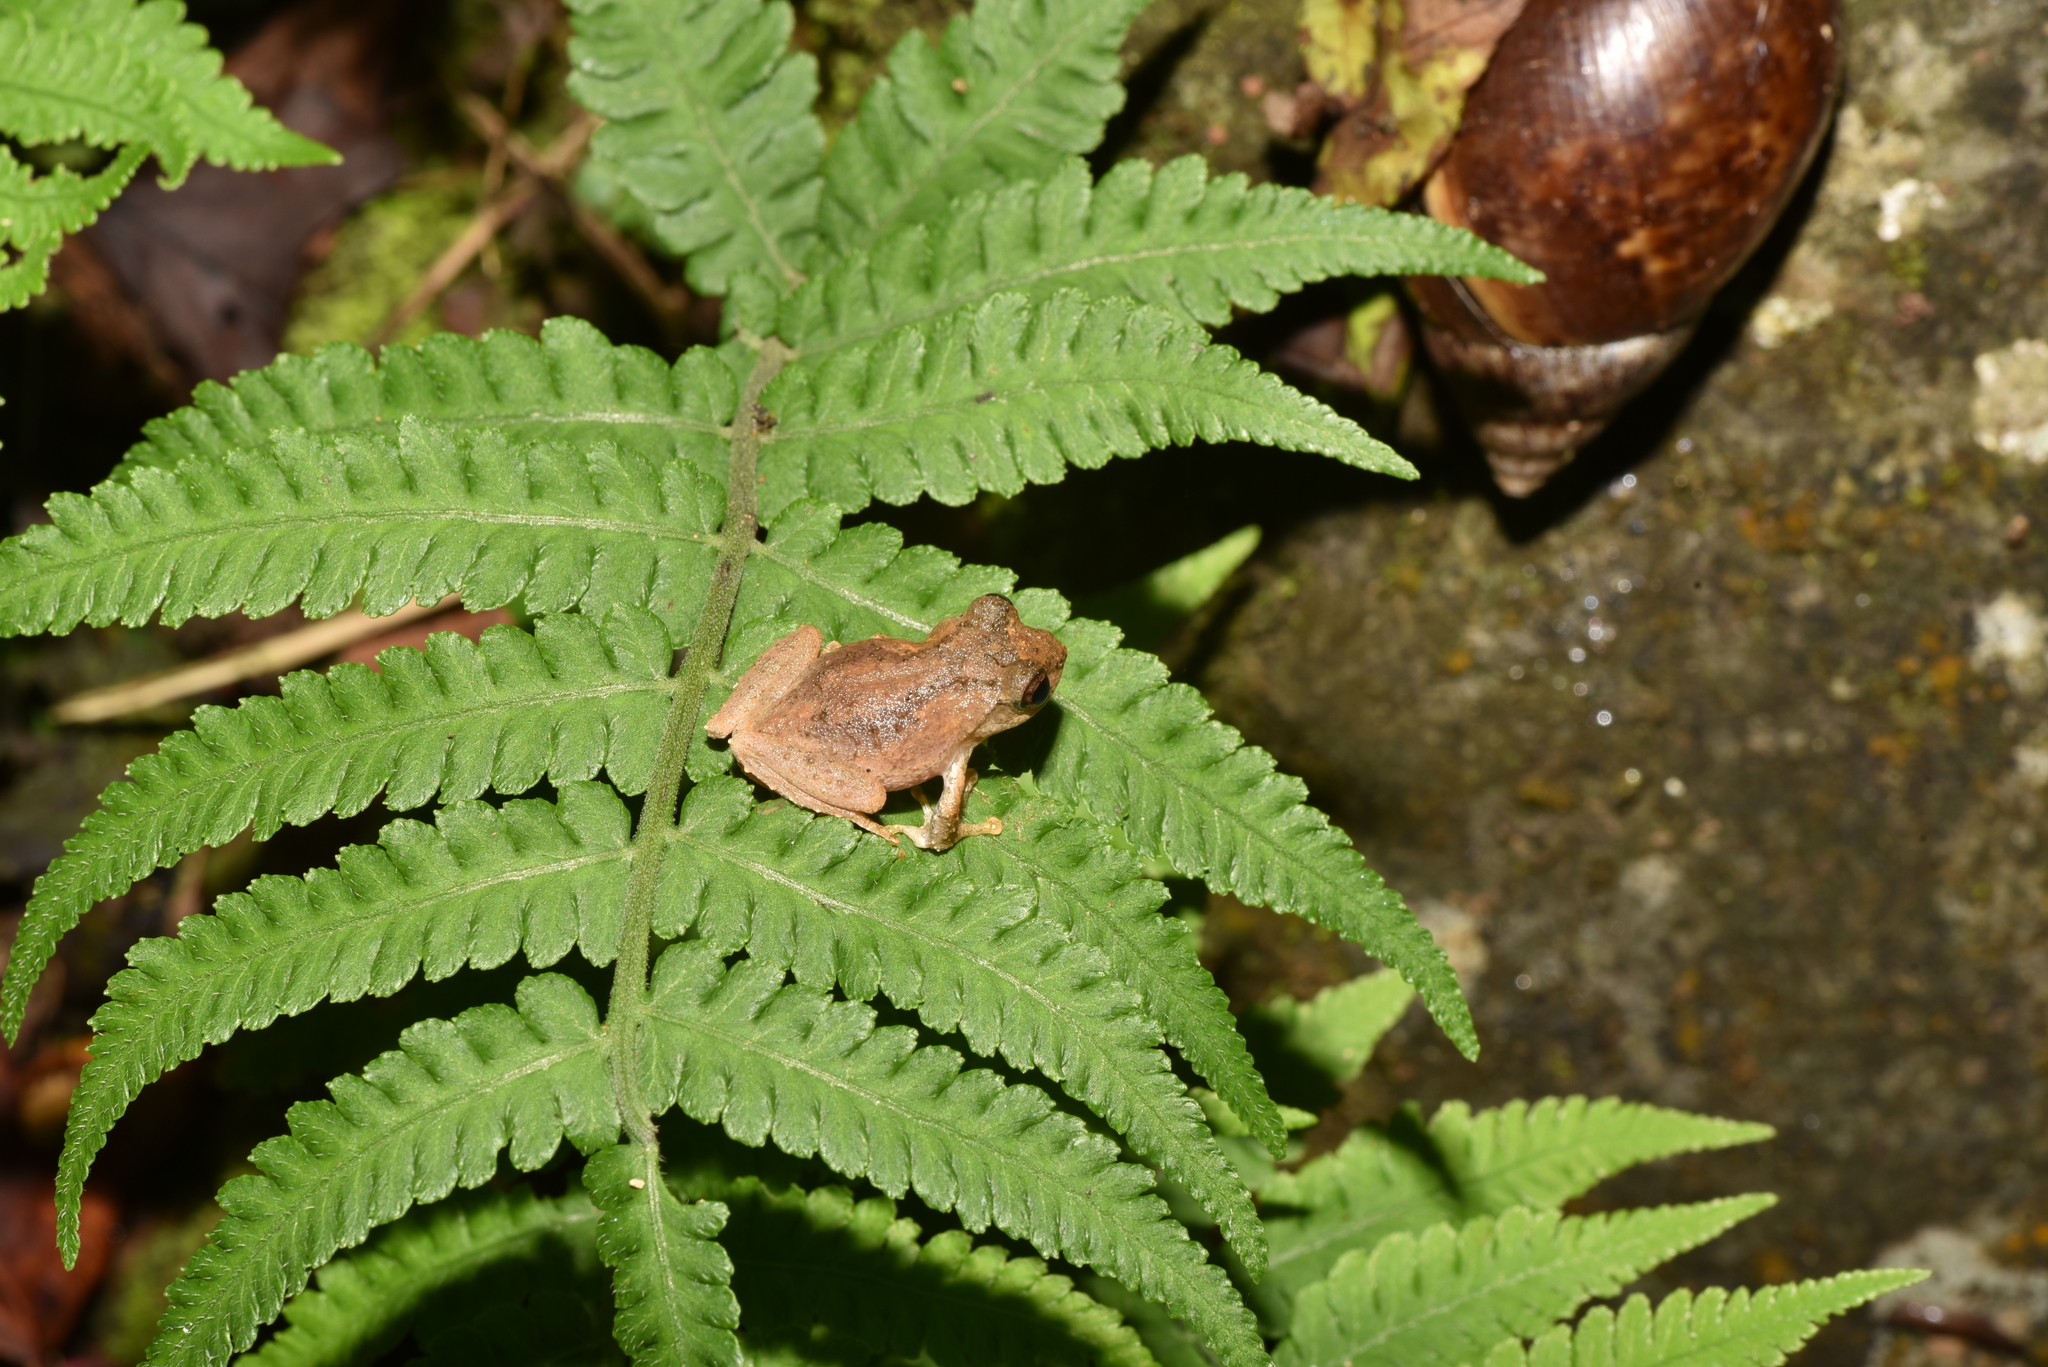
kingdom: Animalia
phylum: Chordata
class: Amphibia
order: Anura
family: Rhacophoridae
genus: Kurixalus
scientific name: Kurixalus idiootocus
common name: Temple treefrog
